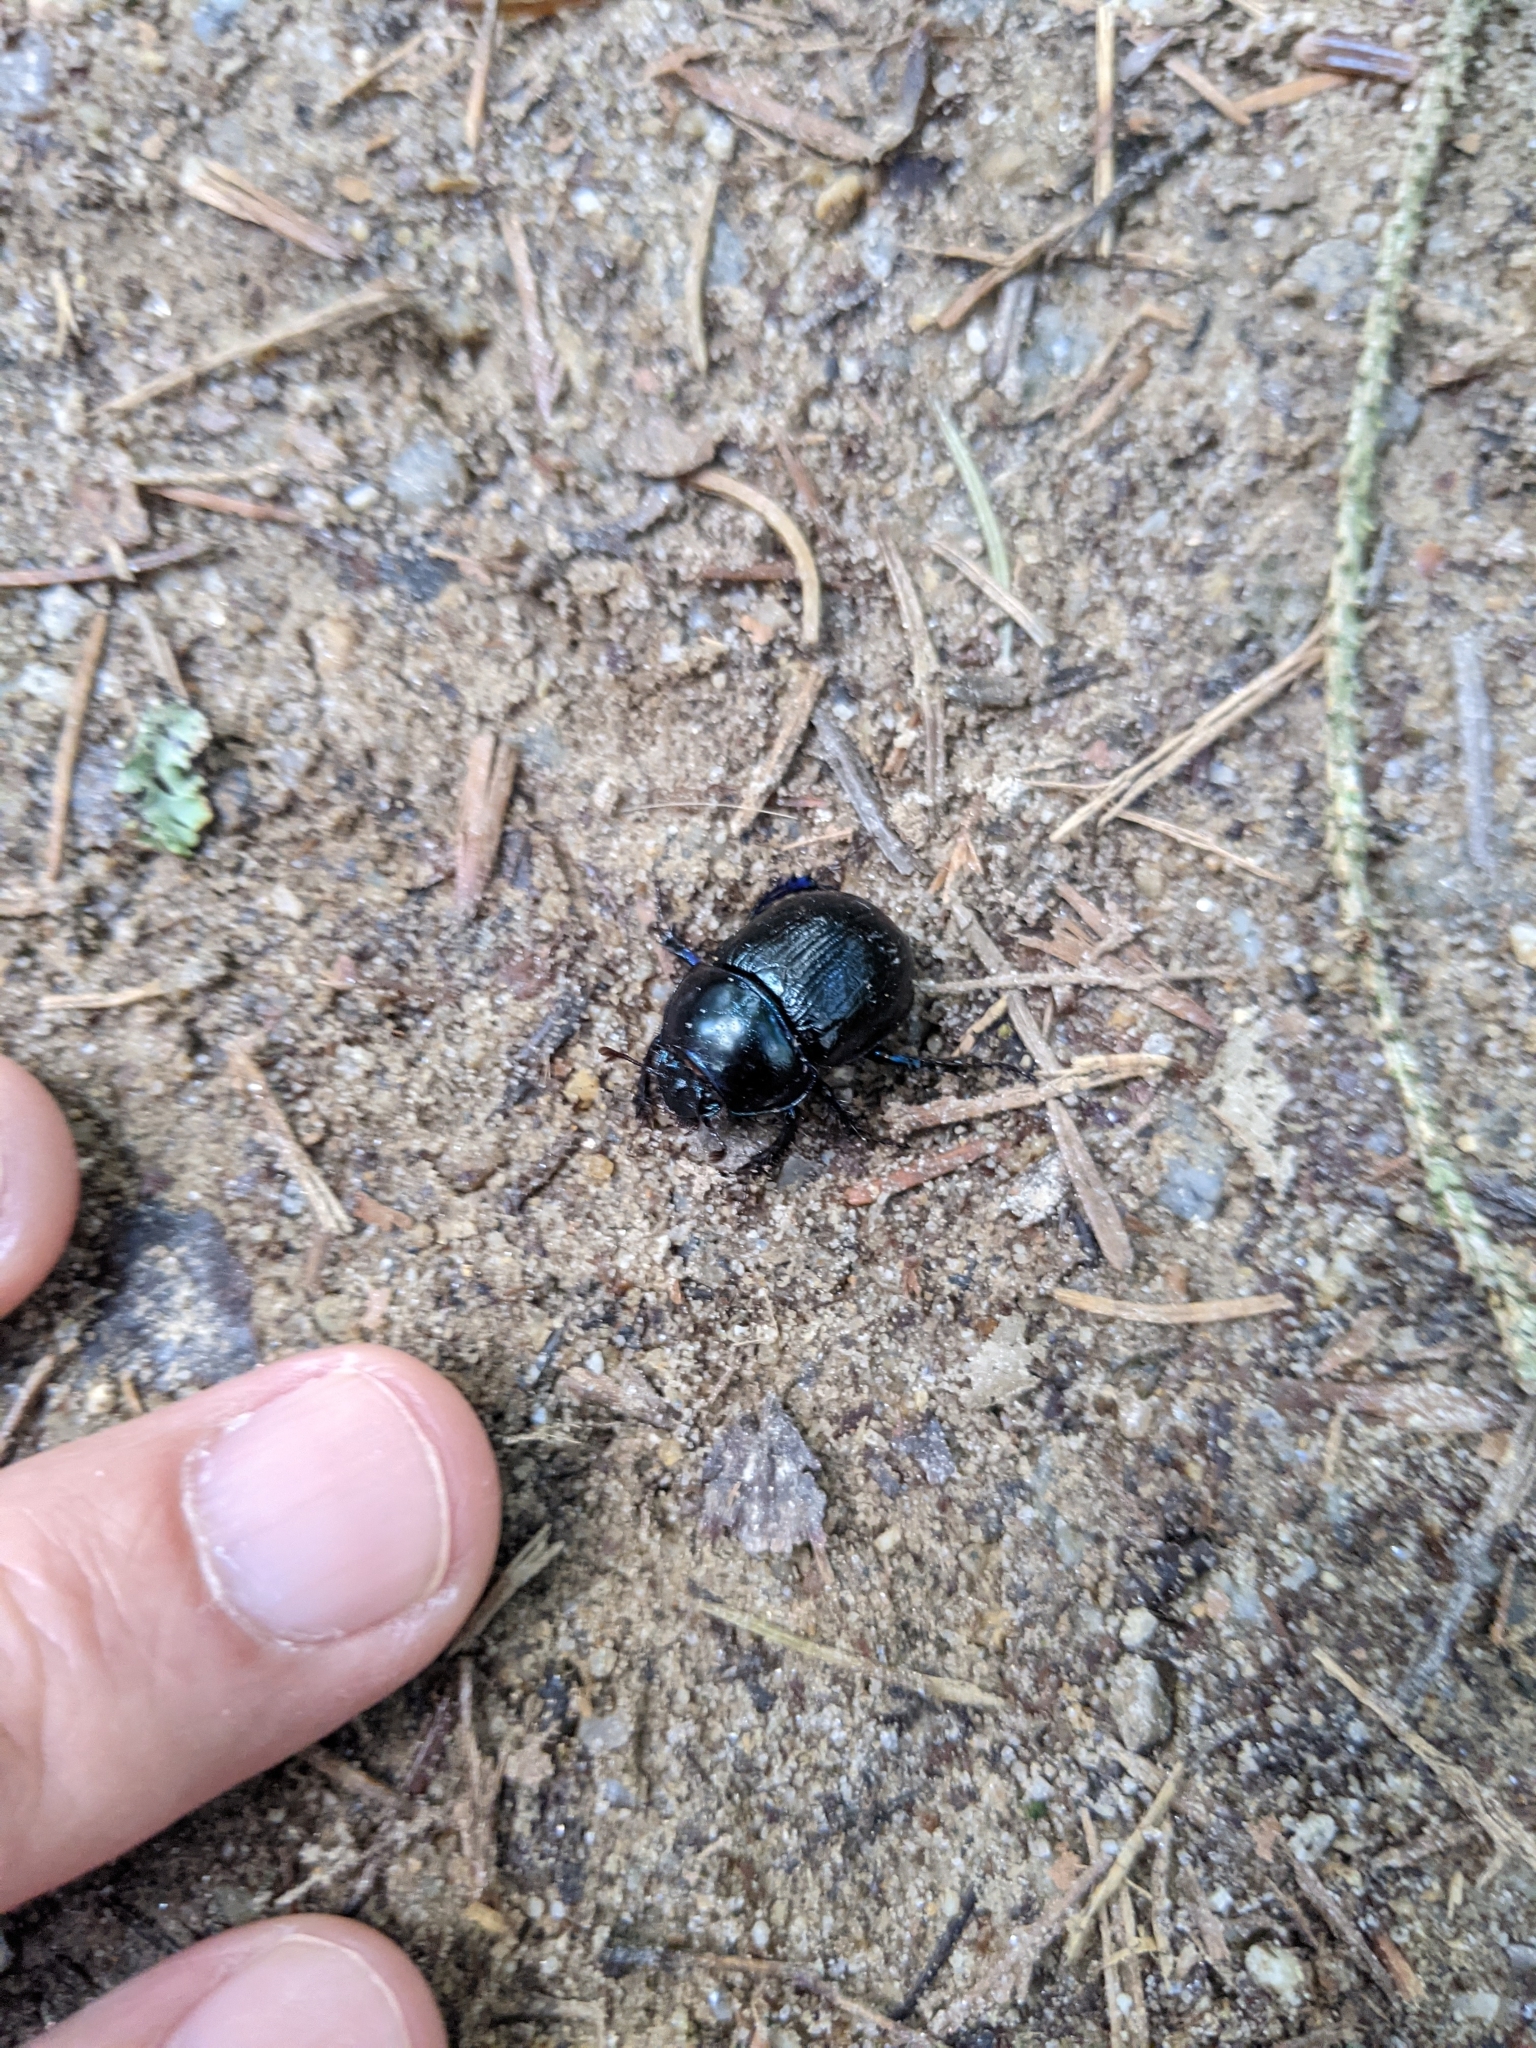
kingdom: Animalia
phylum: Arthropoda
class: Insecta
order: Coleoptera
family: Geotrupidae
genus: Anoplotrupes
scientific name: Anoplotrupes stercorosus
